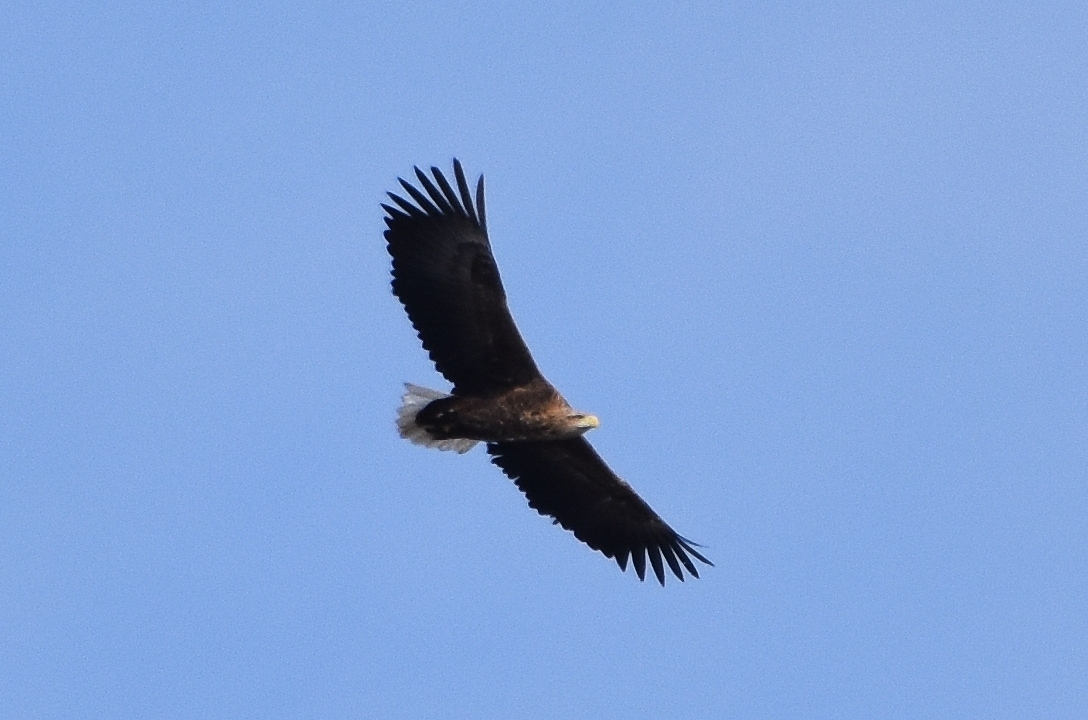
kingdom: Animalia
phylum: Chordata
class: Aves
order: Accipitriformes
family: Accipitridae
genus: Haliaeetus
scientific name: Haliaeetus albicilla
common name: White-tailed eagle
